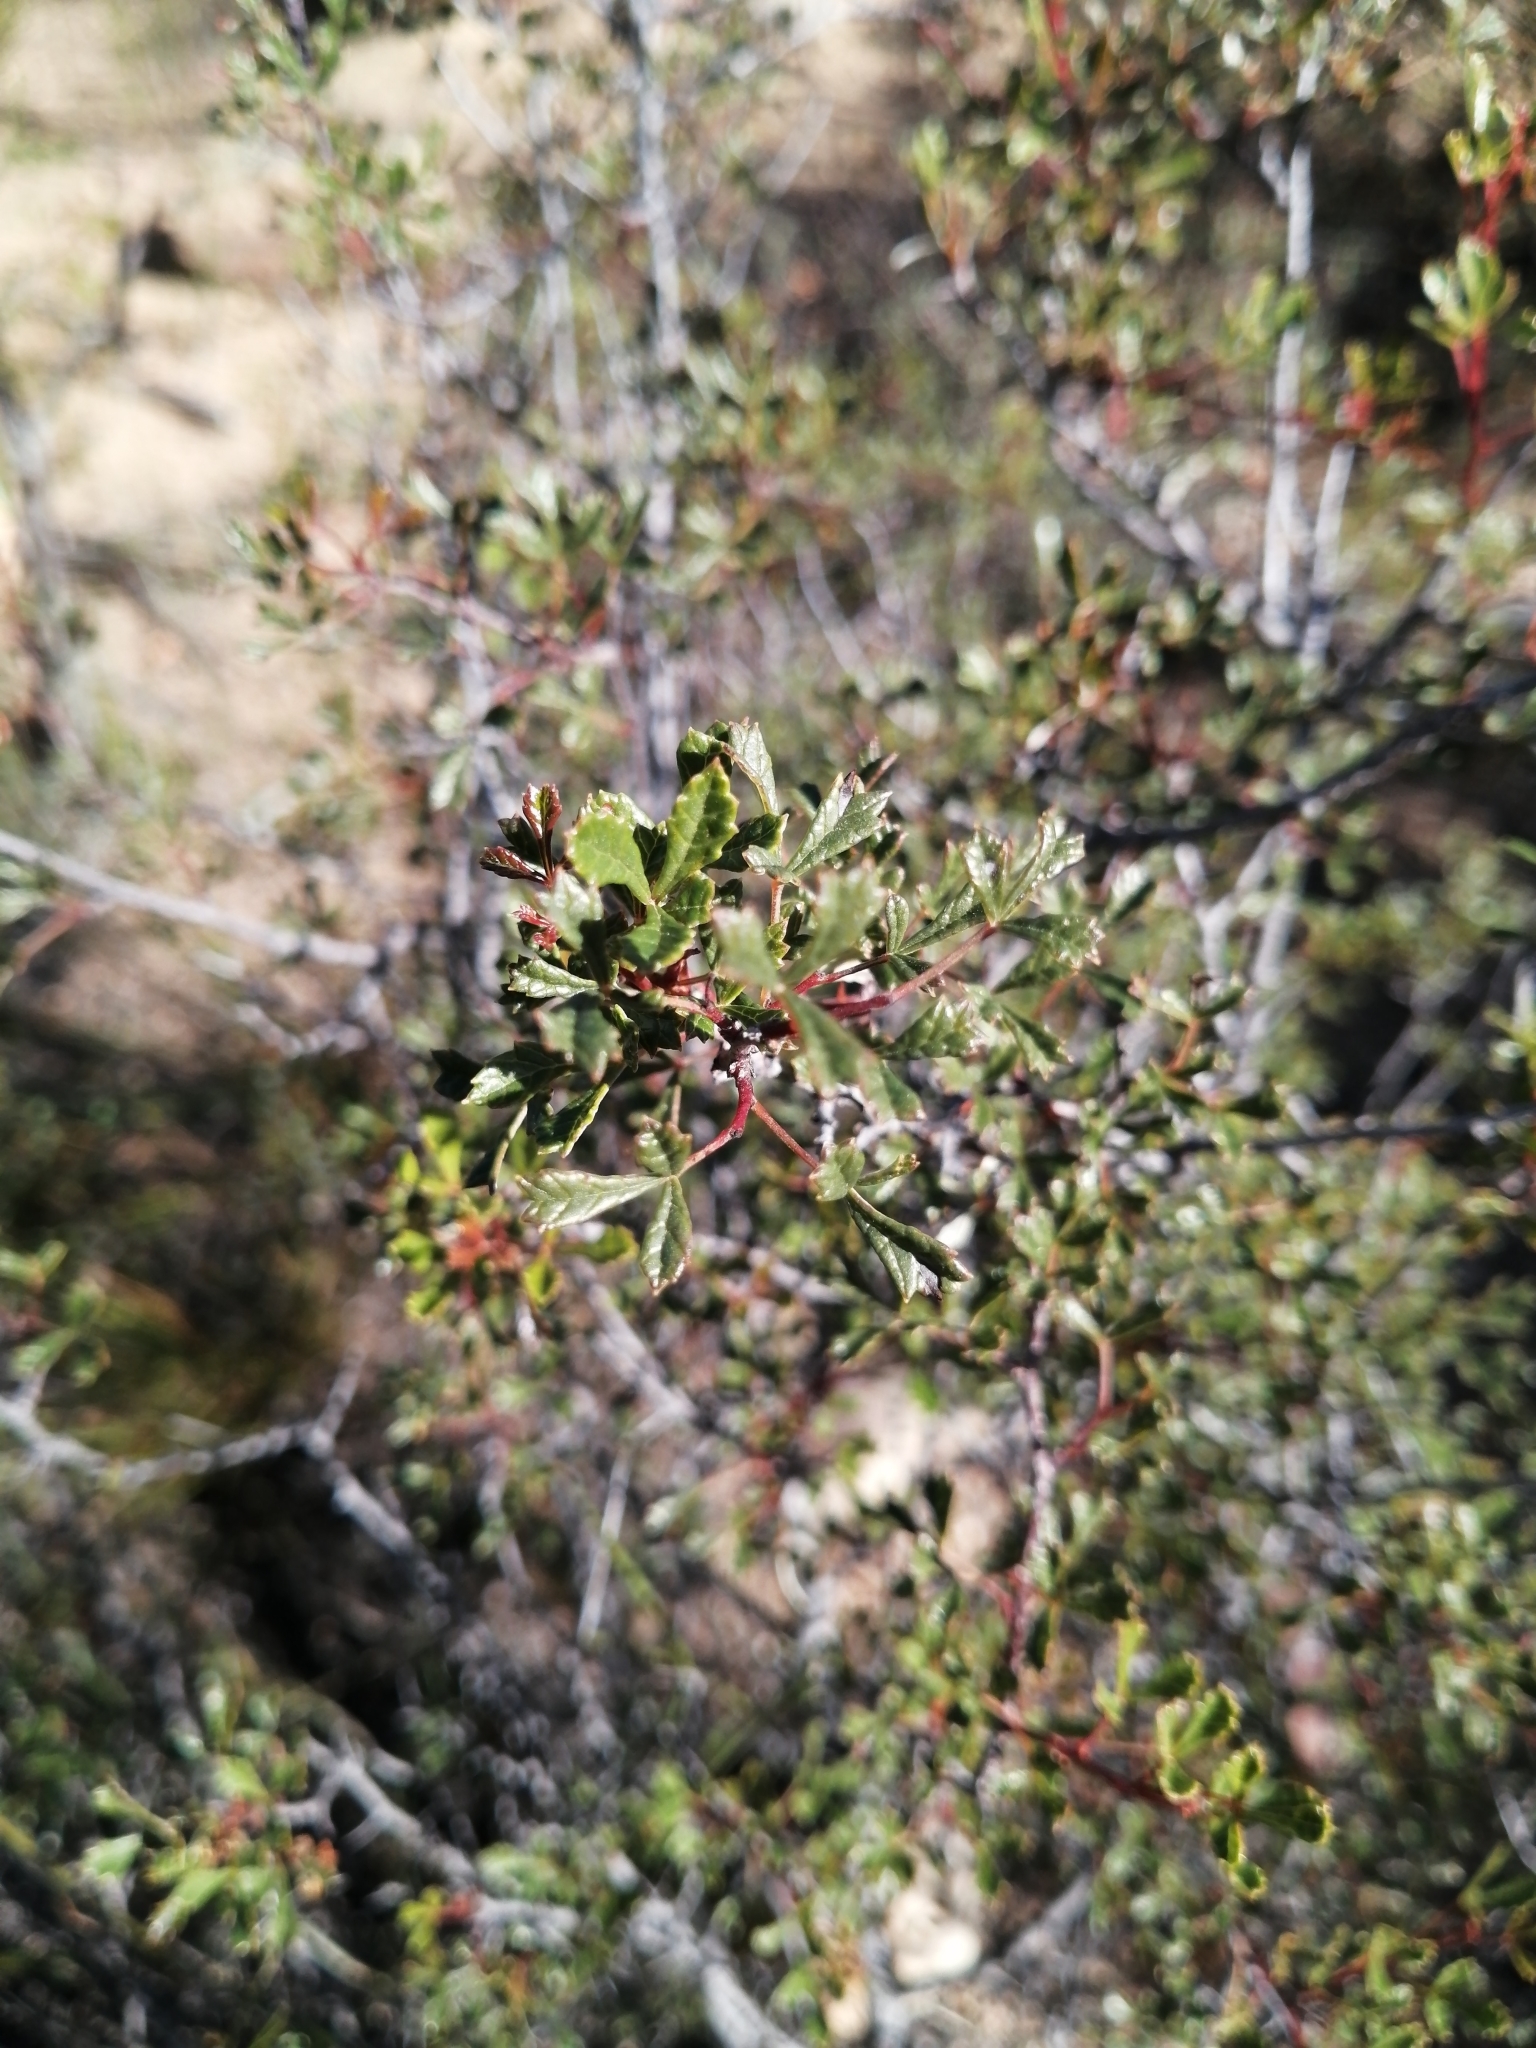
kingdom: Plantae
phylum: Tracheophyta
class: Magnoliopsida
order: Sapindales
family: Anacardiaceae
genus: Searsia
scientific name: Searsia dissecta
